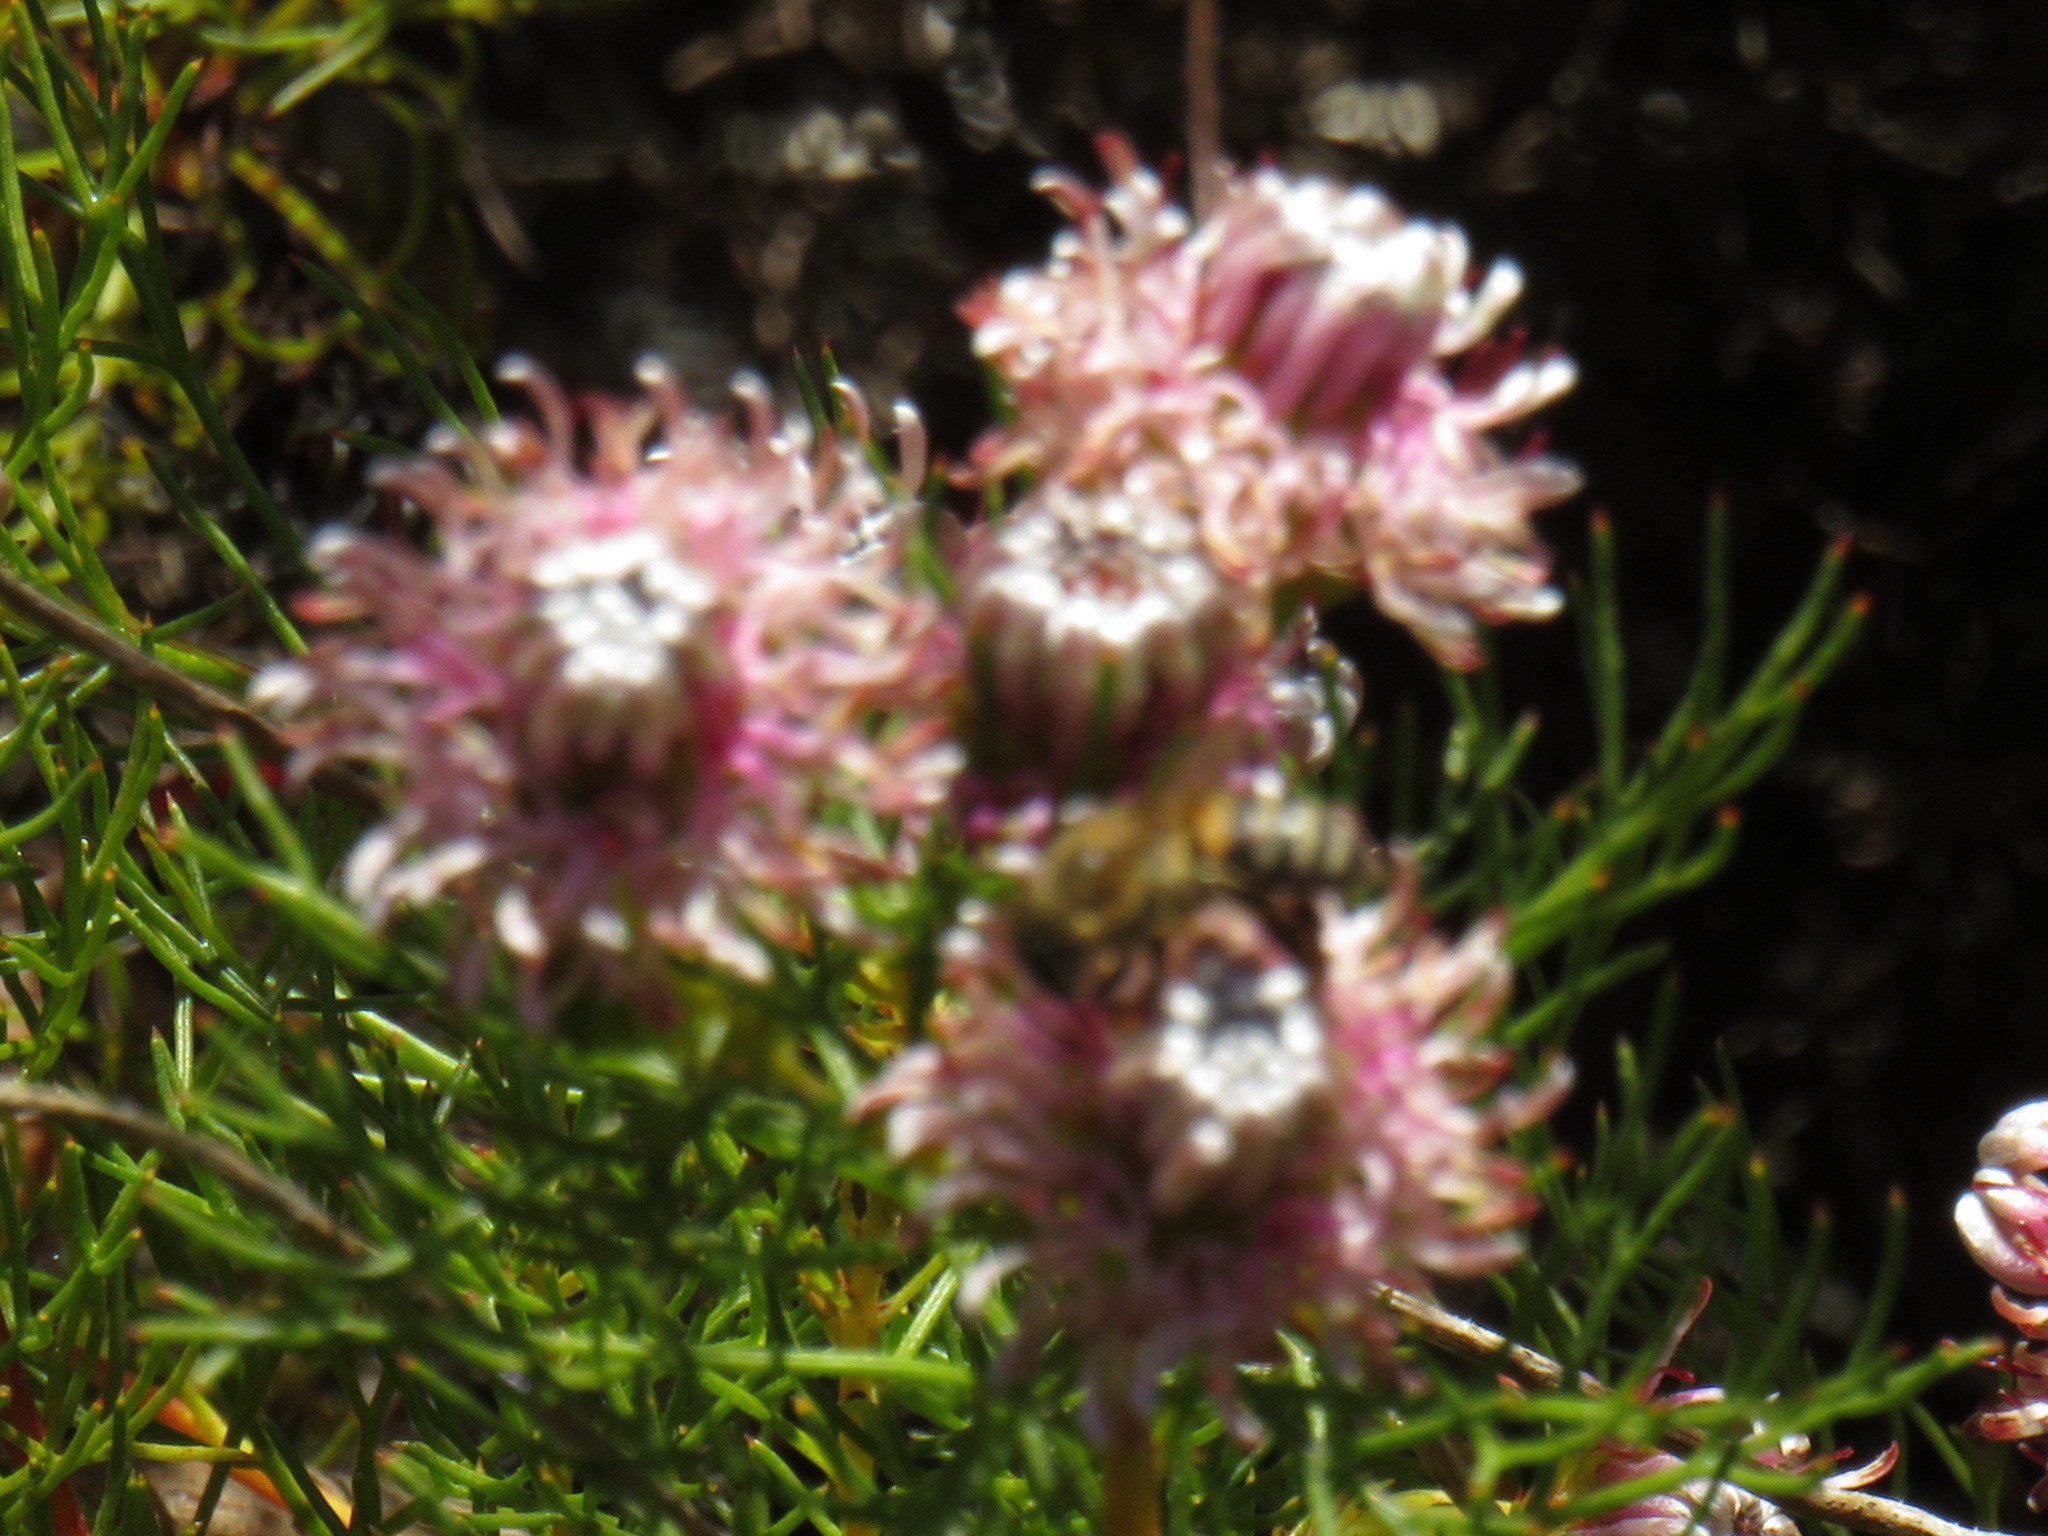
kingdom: Animalia
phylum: Arthropoda
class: Insecta
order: Hymenoptera
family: Apidae
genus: Apis
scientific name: Apis mellifera
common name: Honey bee
